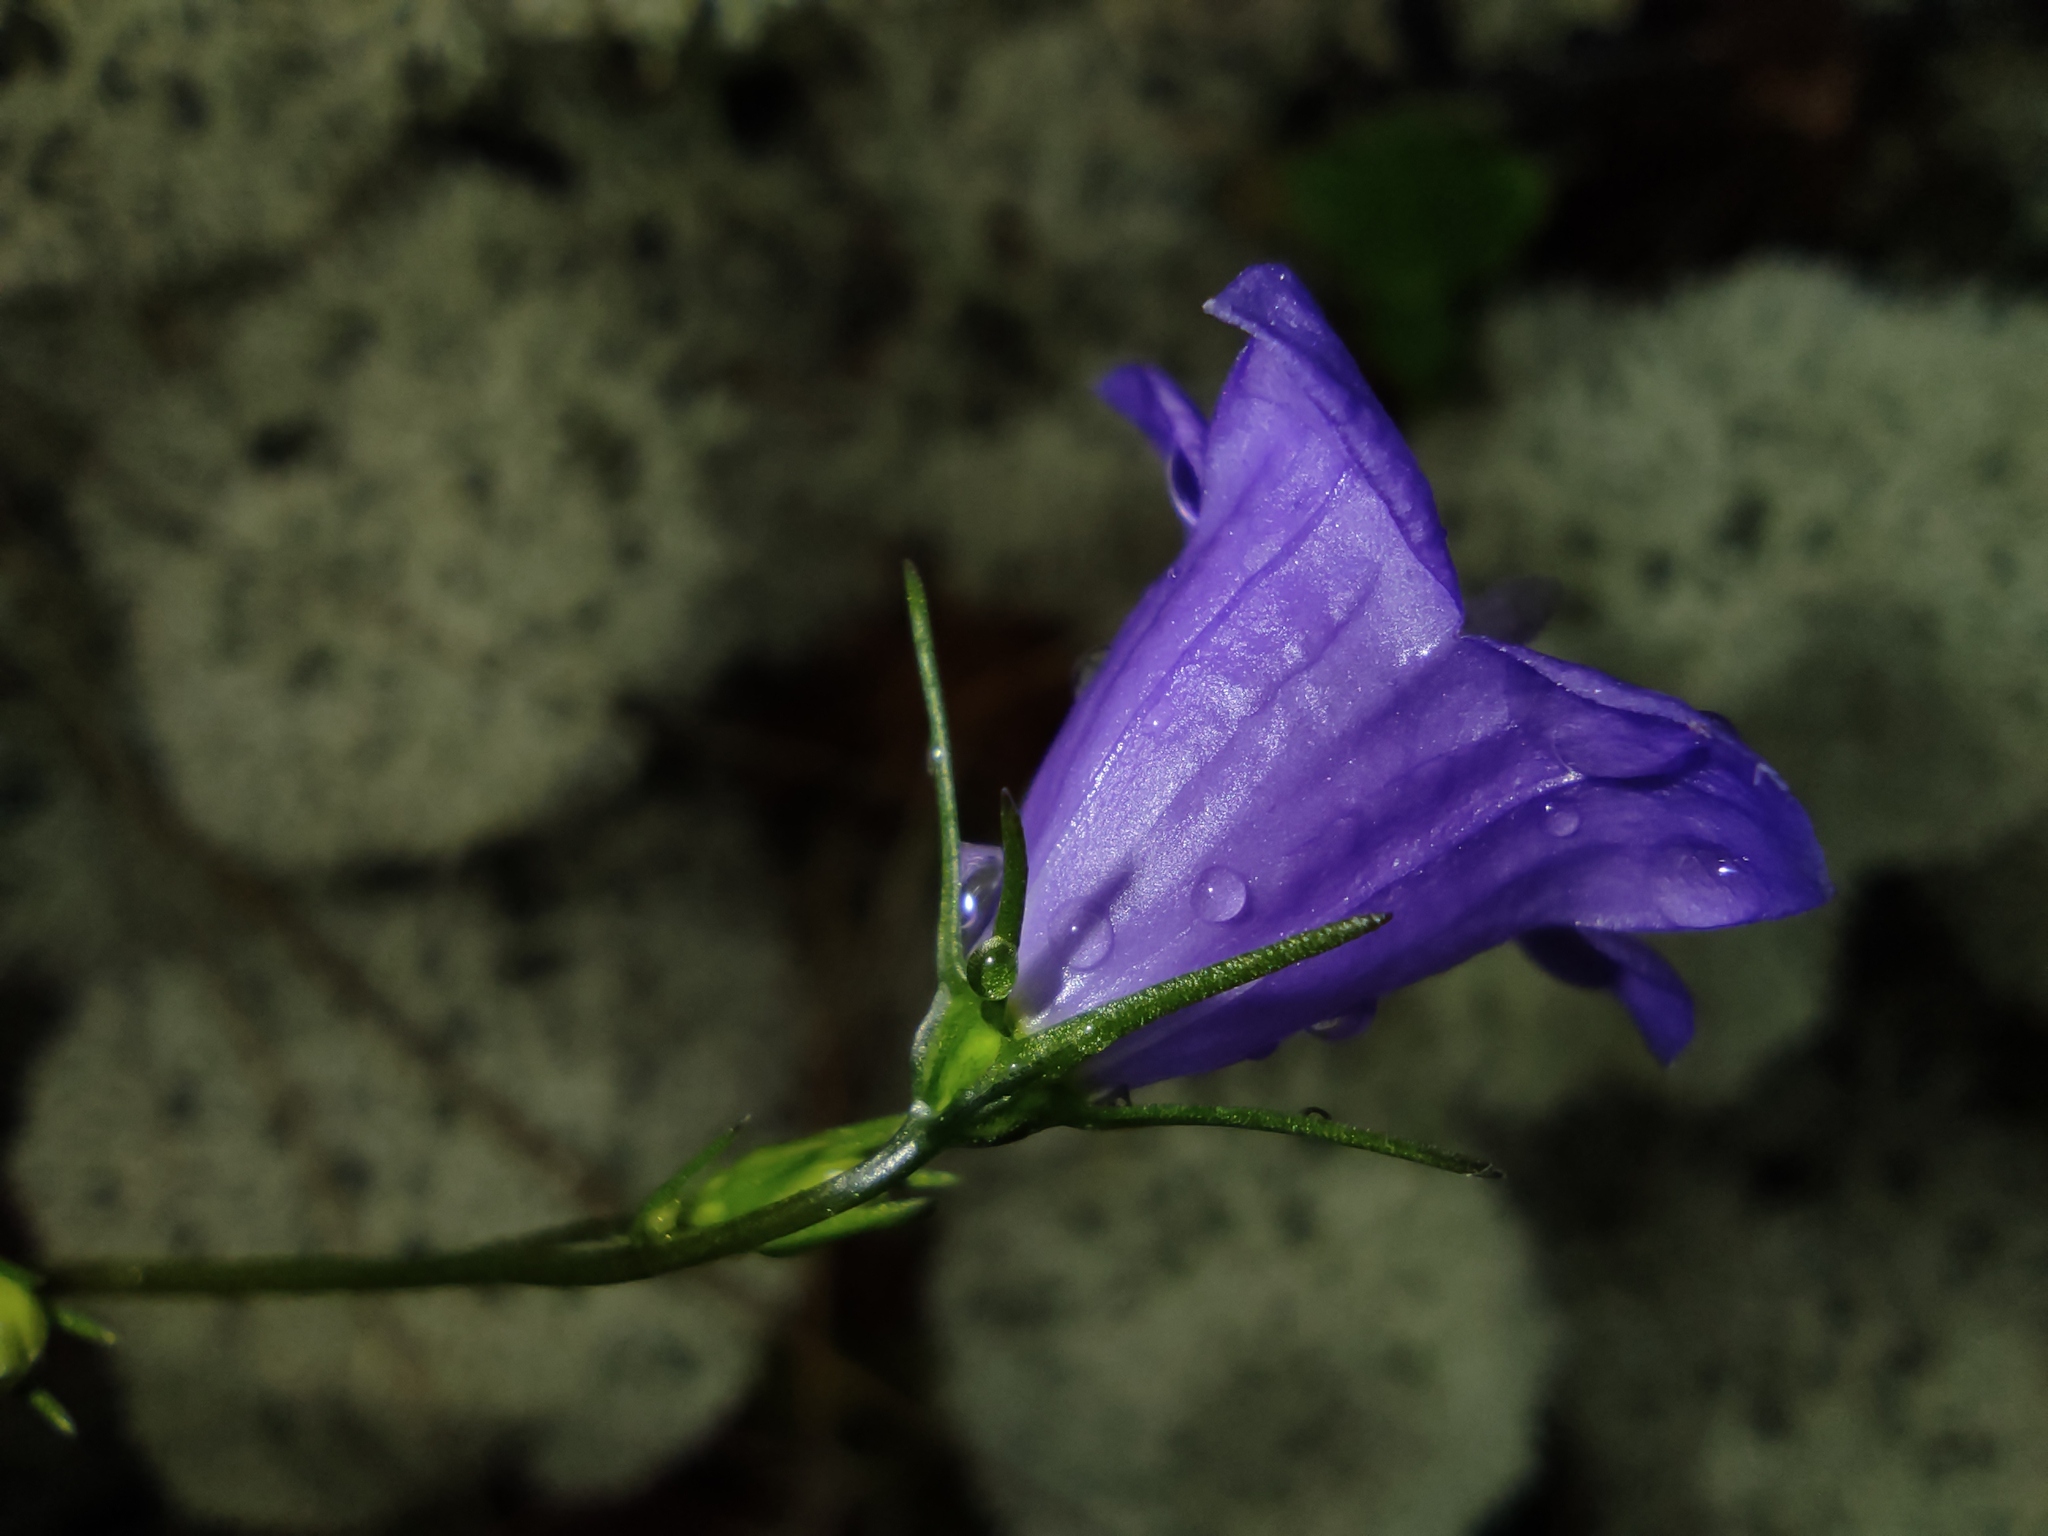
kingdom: Plantae
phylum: Tracheophyta
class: Magnoliopsida
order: Asterales
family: Campanulaceae
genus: Campanula
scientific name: Campanula rotundifolia
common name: Harebell
